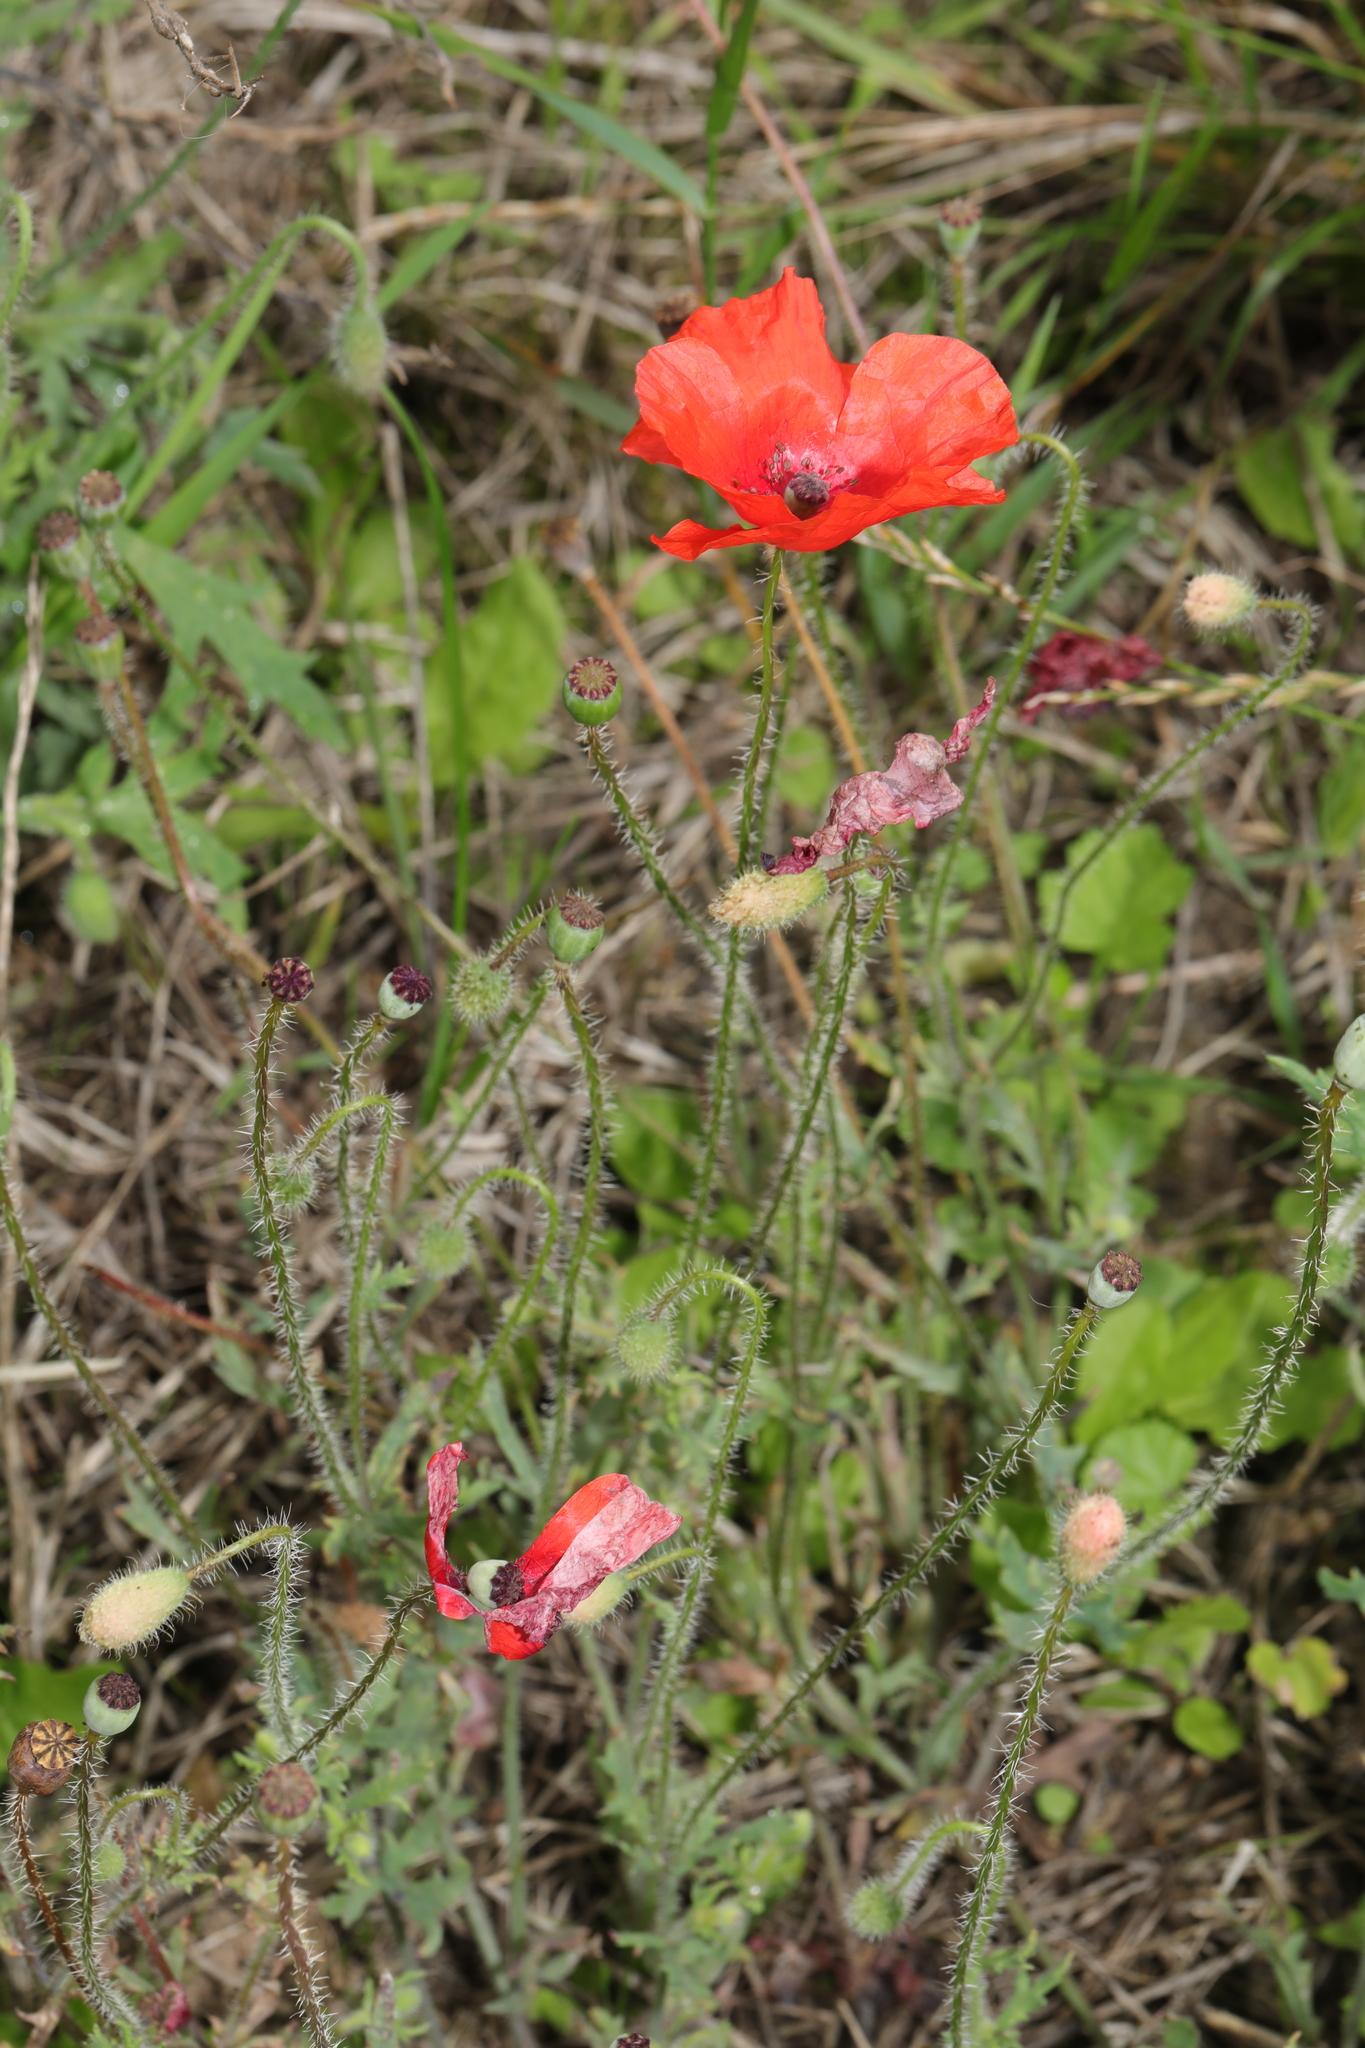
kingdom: Plantae
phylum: Tracheophyta
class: Magnoliopsida
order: Ranunculales
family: Papaveraceae
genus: Papaver
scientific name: Papaver rhoeas
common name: Corn poppy
